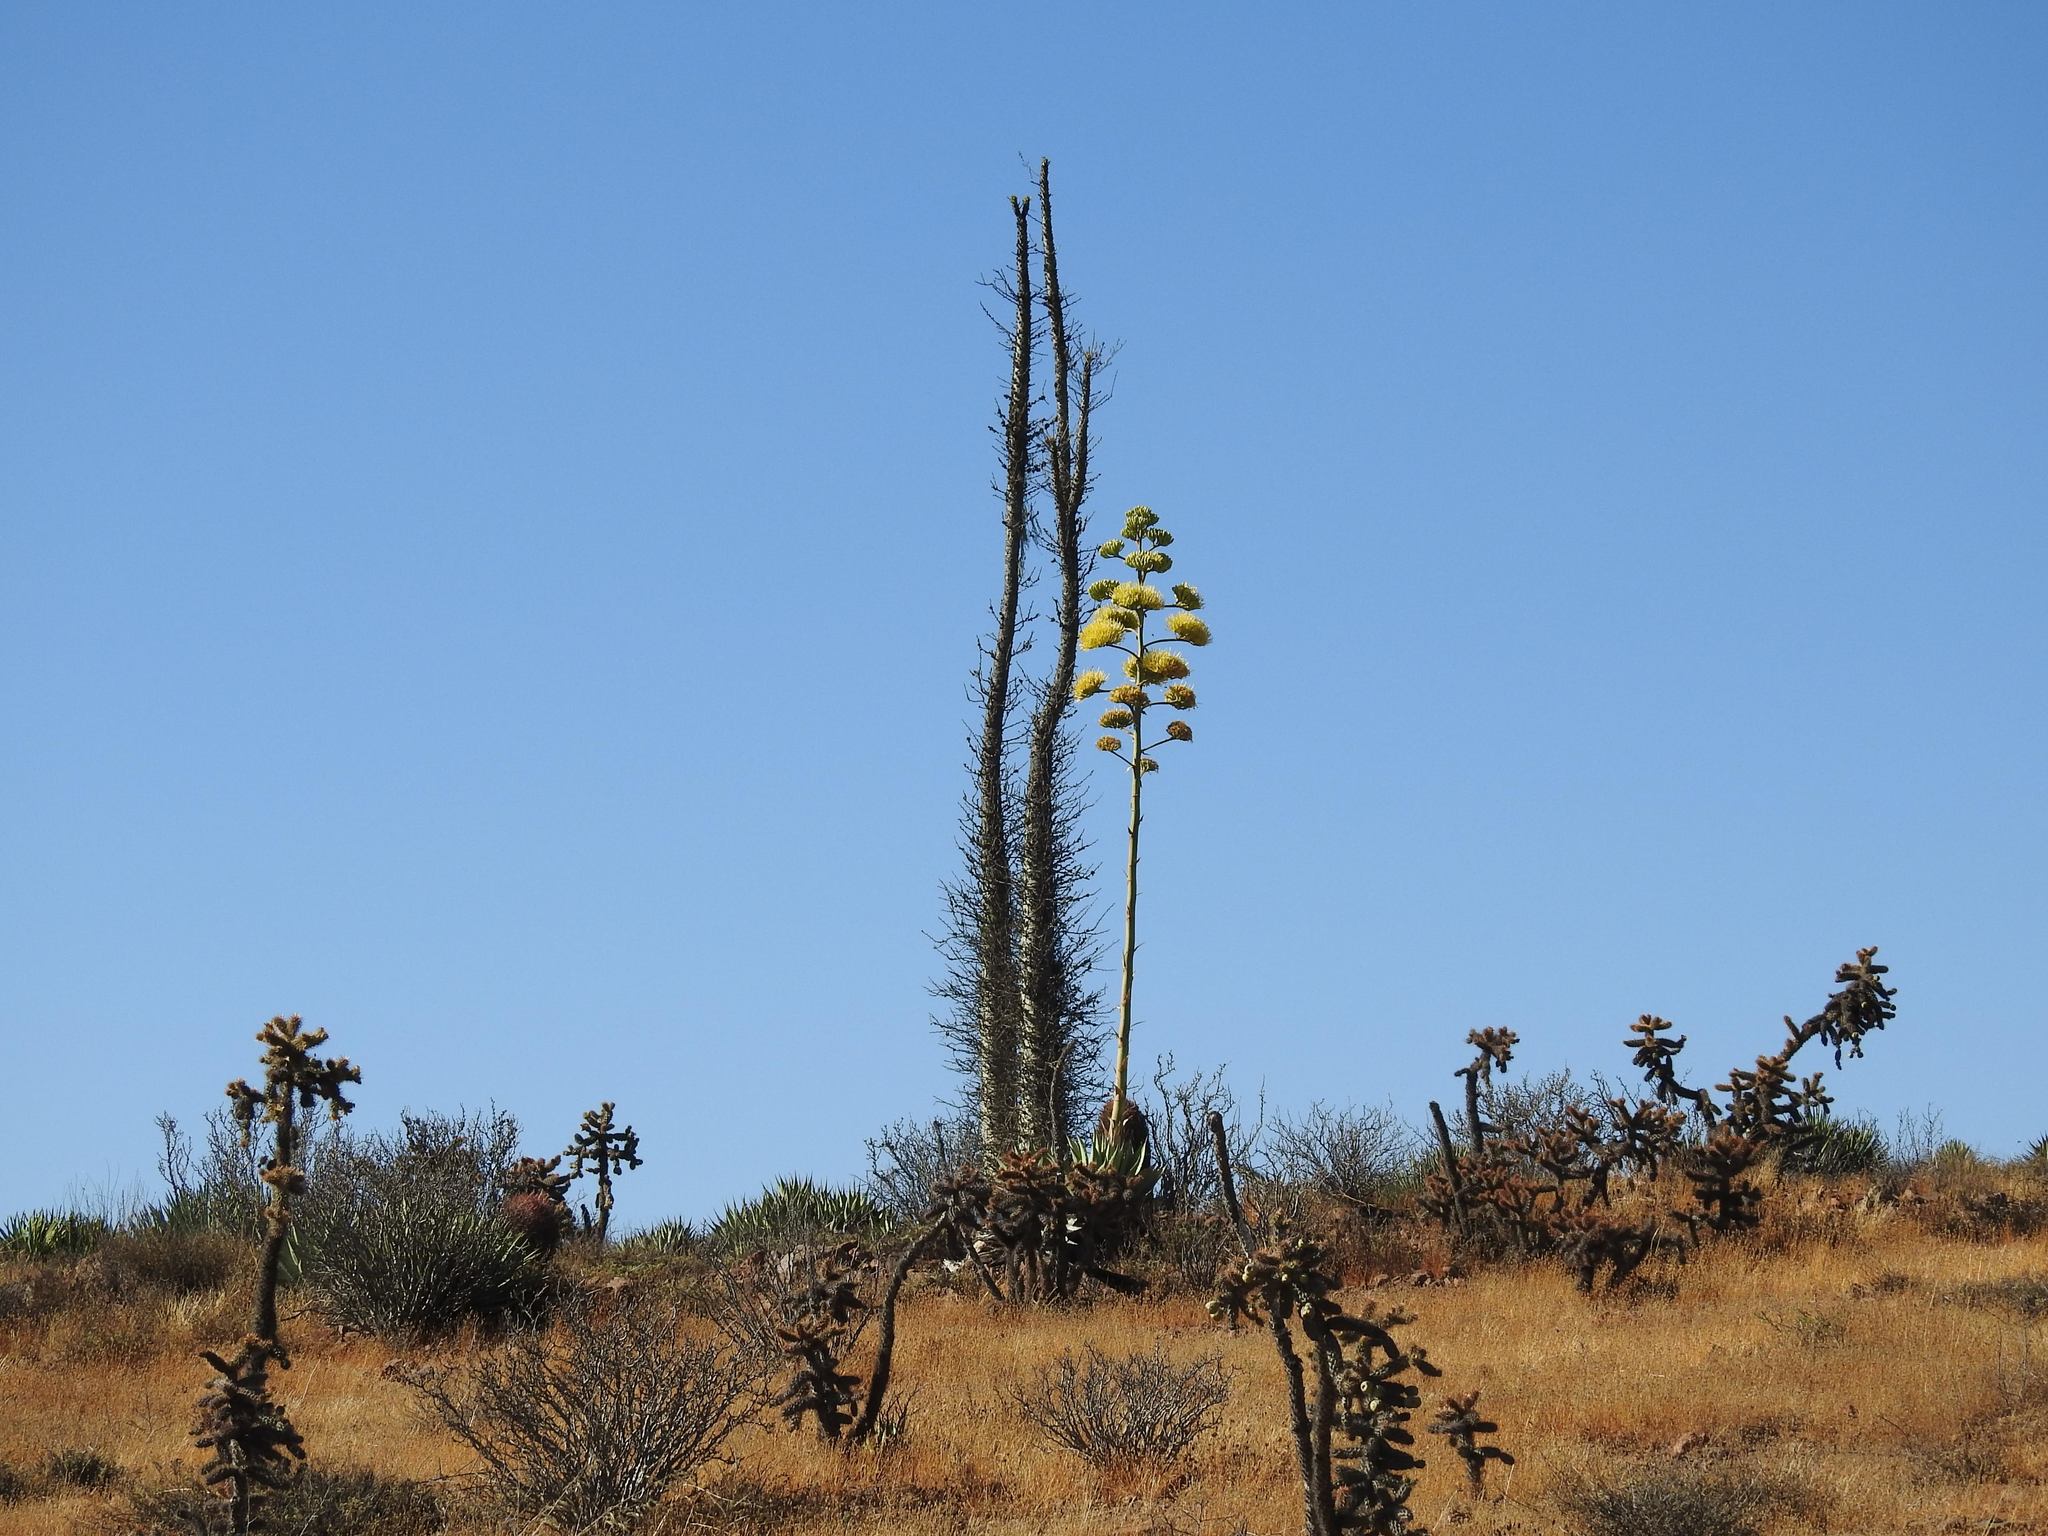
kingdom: Plantae
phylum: Tracheophyta
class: Magnoliopsida
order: Ericales
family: Fouquieriaceae
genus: Fouquieria
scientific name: Fouquieria columnaris
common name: Boojumtree
